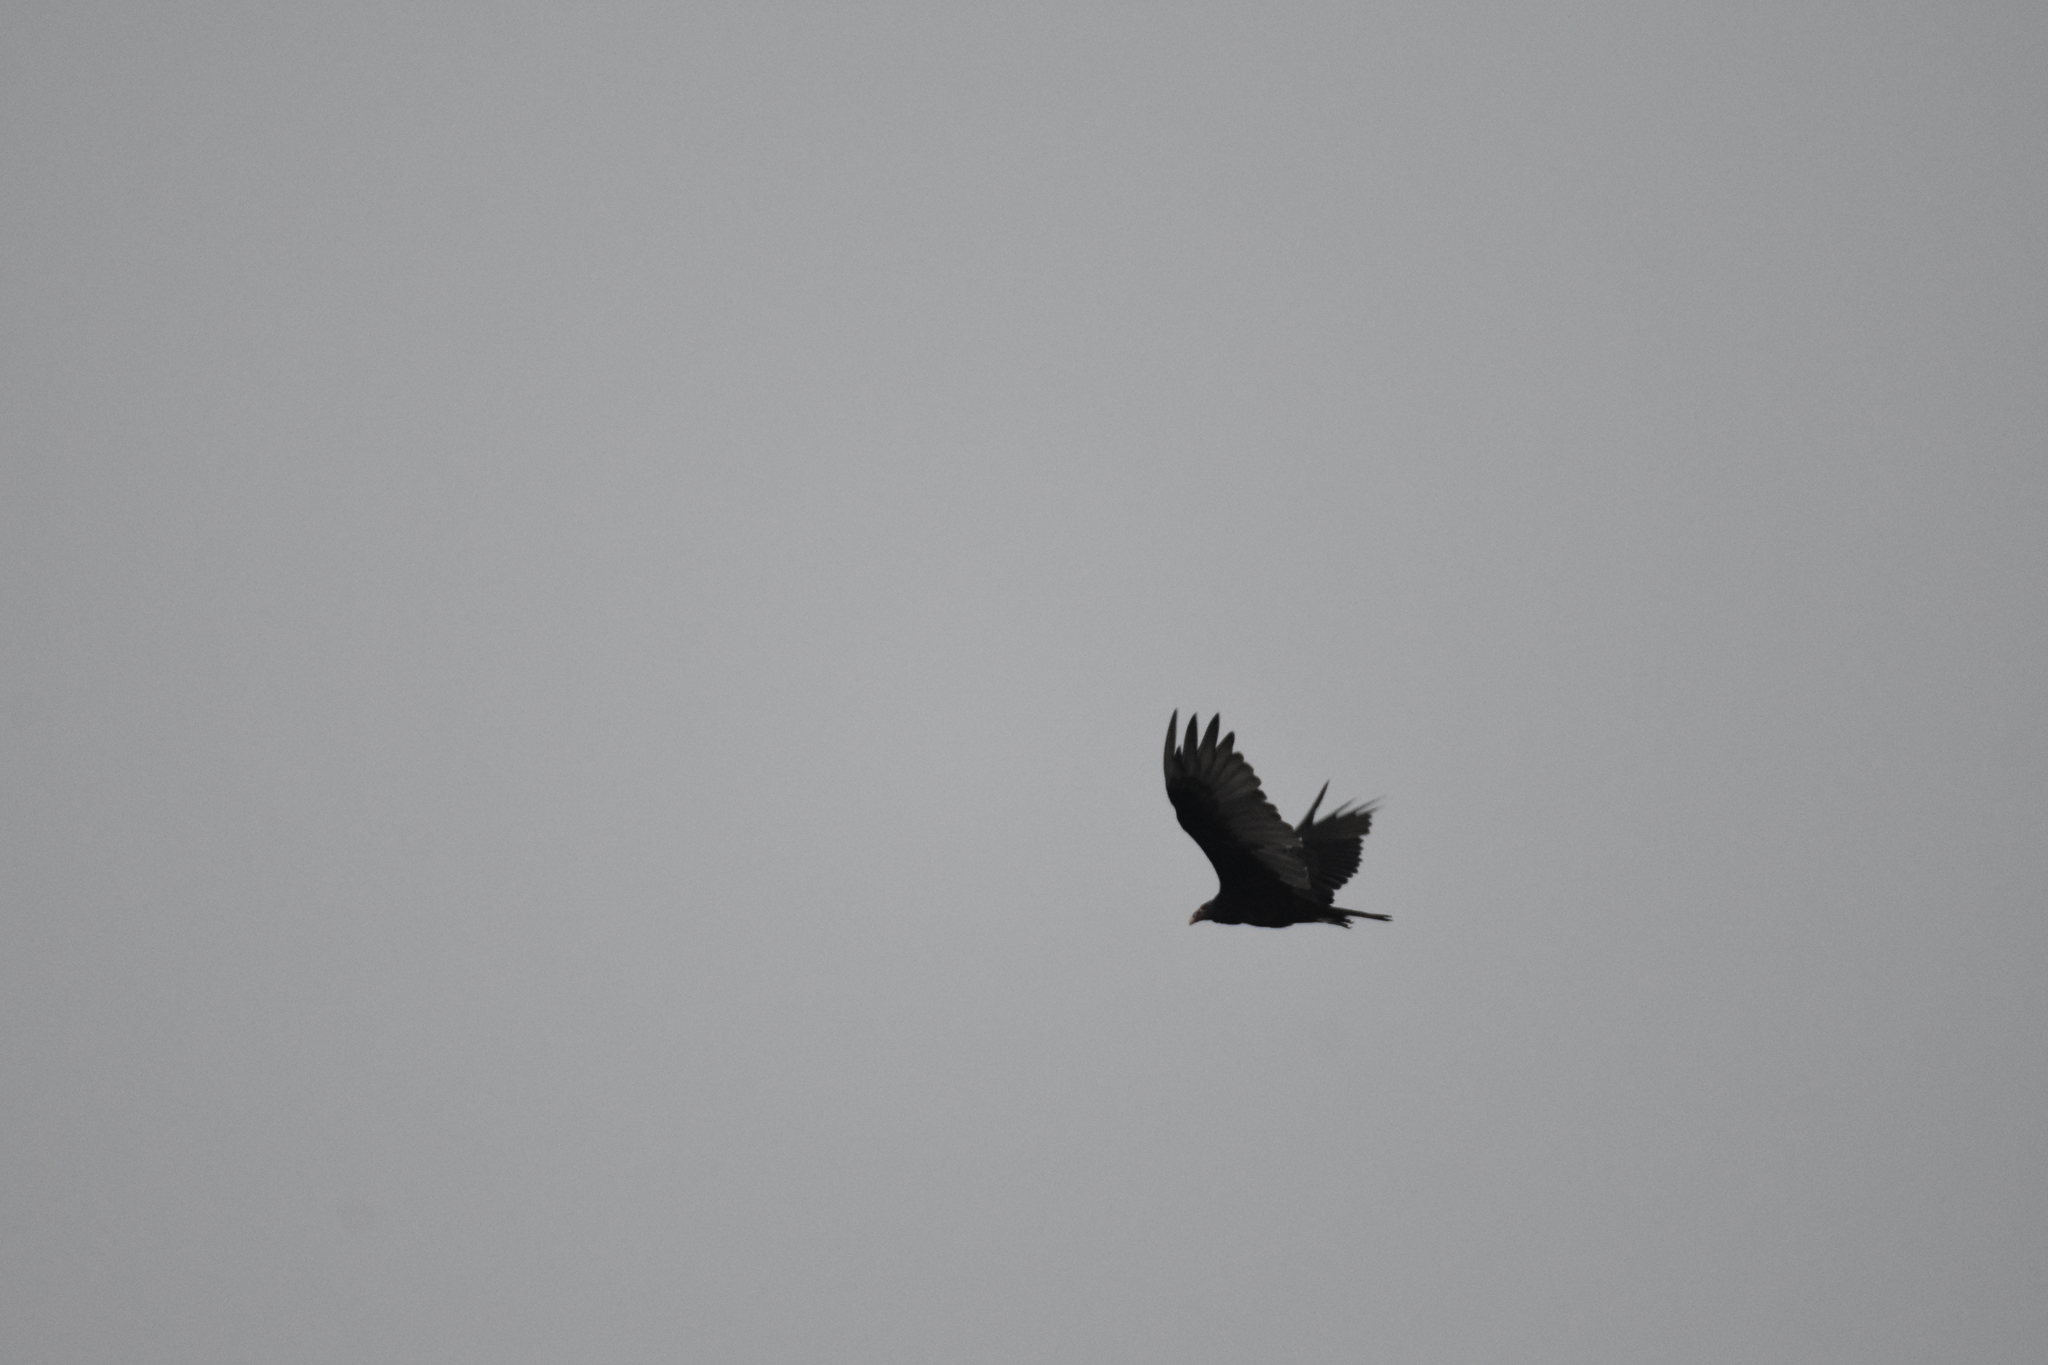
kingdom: Animalia
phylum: Chordata
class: Aves
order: Accipitriformes
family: Cathartidae
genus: Cathartes
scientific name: Cathartes aura
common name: Turkey vulture
